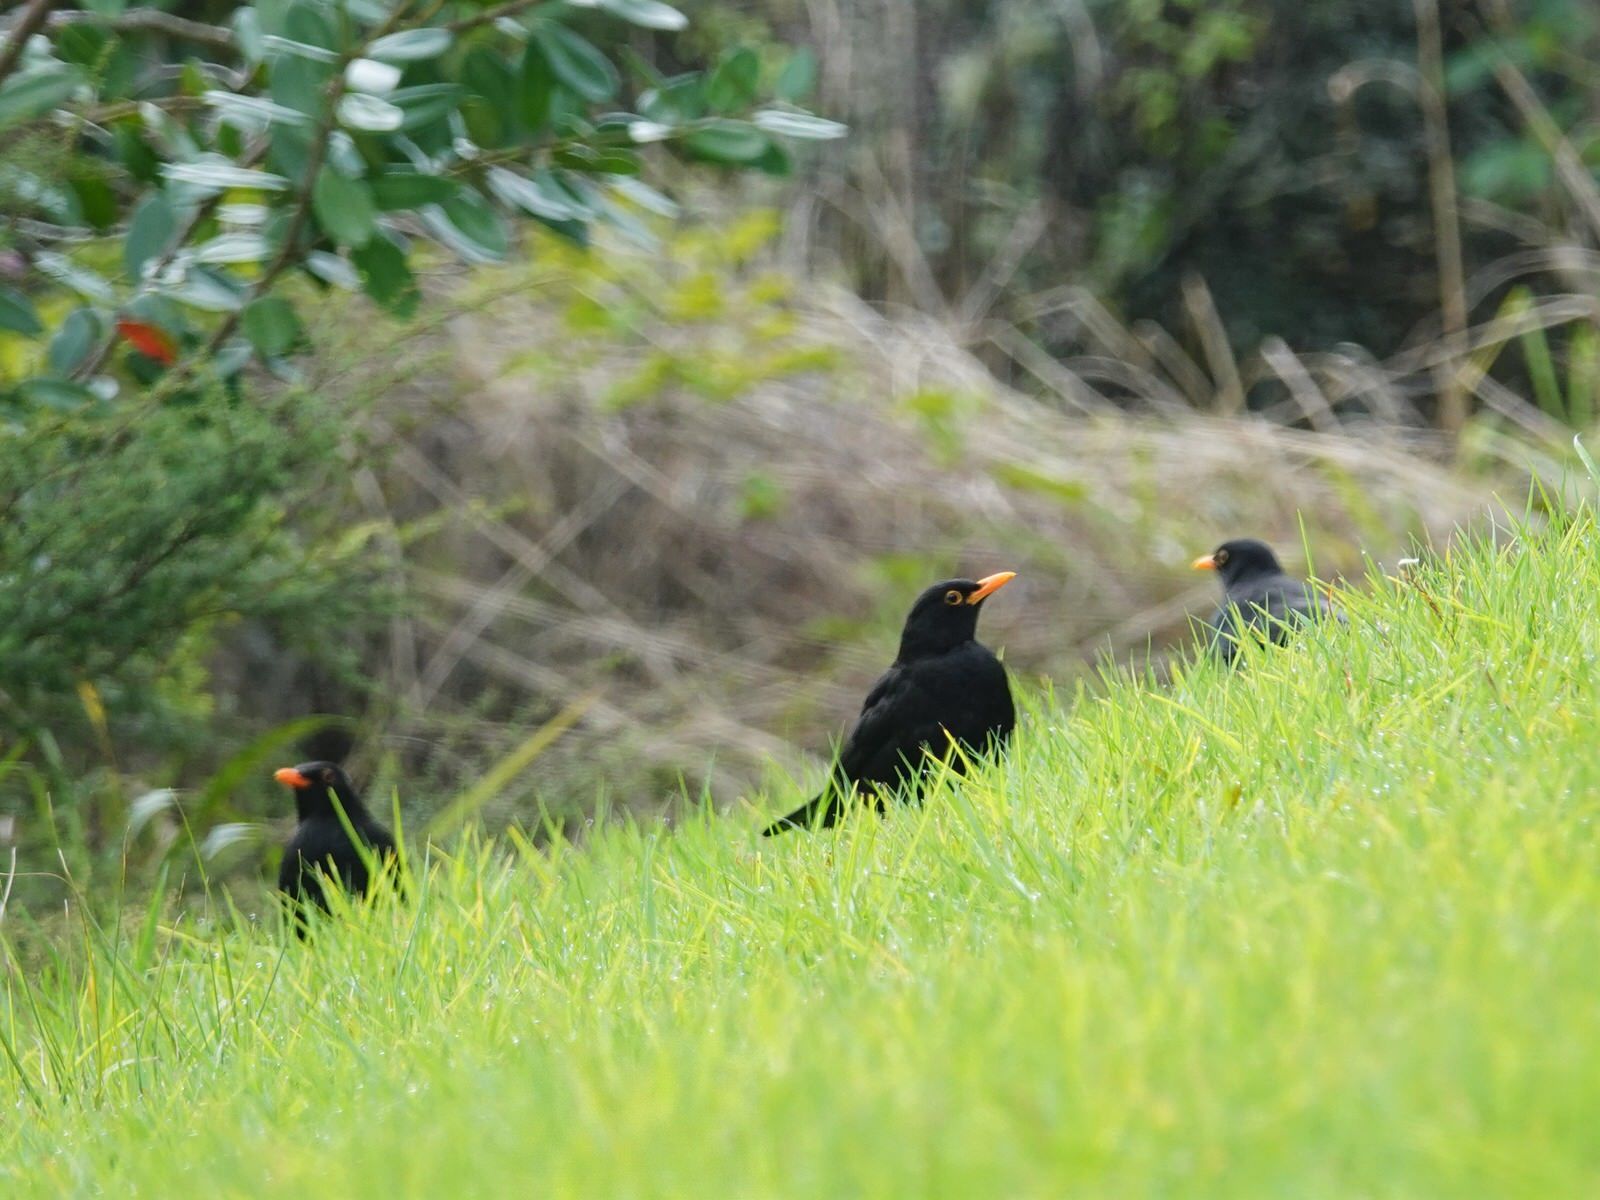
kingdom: Animalia
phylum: Chordata
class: Aves
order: Passeriformes
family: Turdidae
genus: Turdus
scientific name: Turdus merula
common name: Common blackbird
